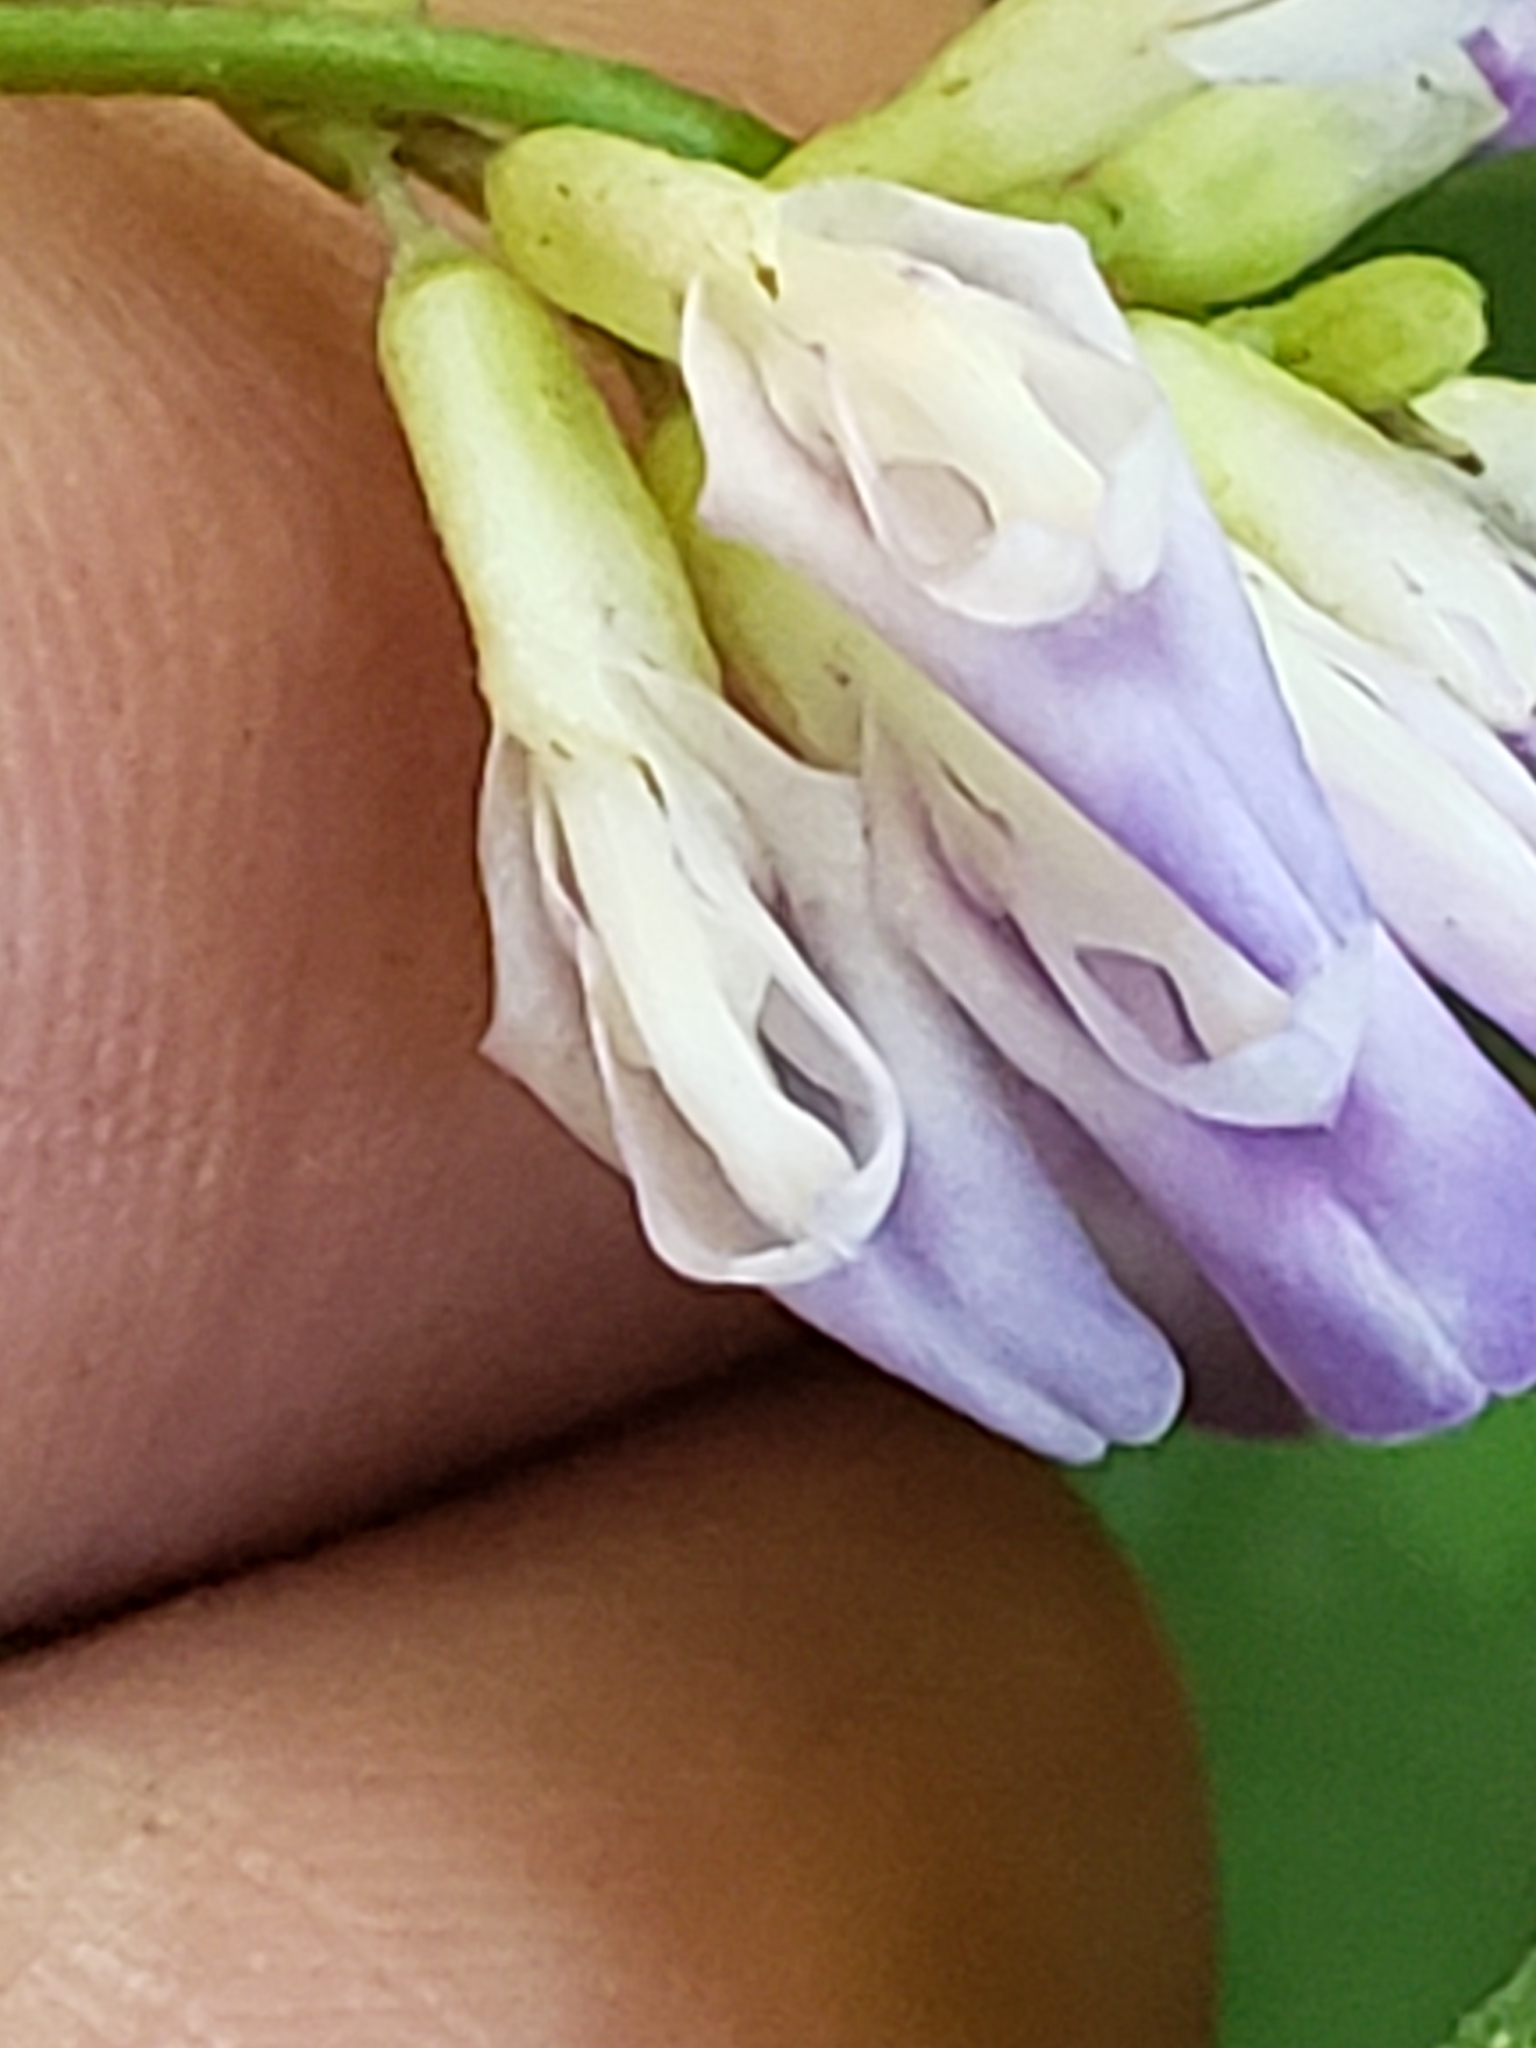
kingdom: Plantae
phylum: Tracheophyta
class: Magnoliopsida
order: Fabales
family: Fabaceae
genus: Amphicarpaea
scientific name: Amphicarpaea bracteata
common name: American hog peanut
